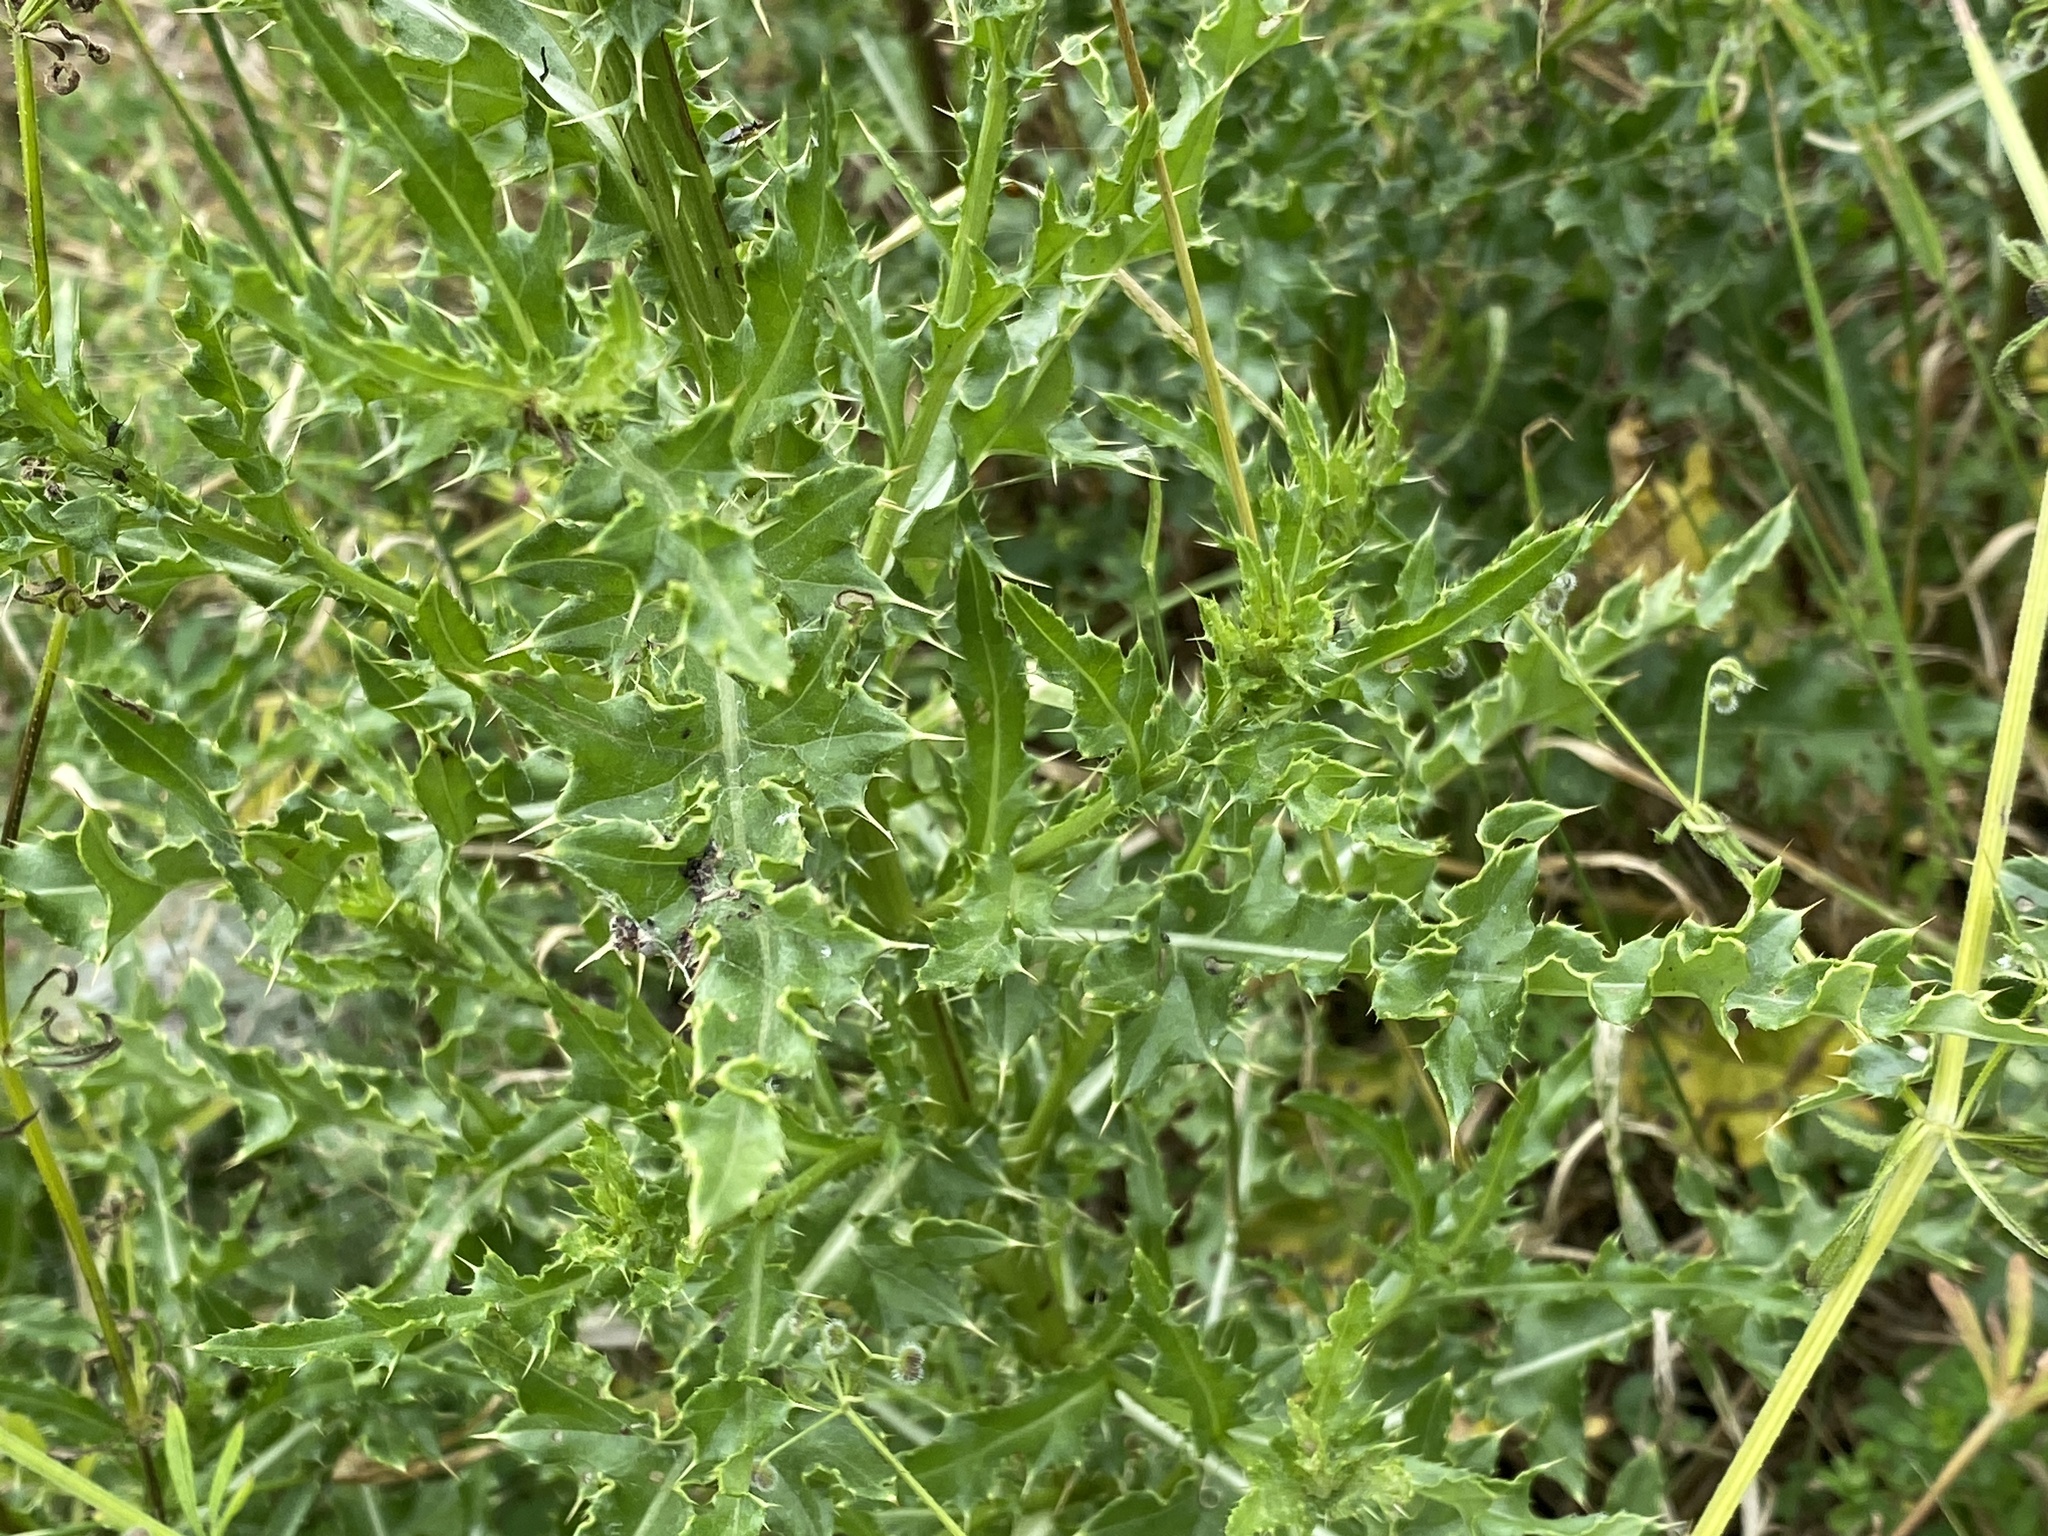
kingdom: Plantae
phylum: Tracheophyta
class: Magnoliopsida
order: Asterales
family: Asteraceae
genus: Cirsium
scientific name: Cirsium arvense
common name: Creeping thistle
